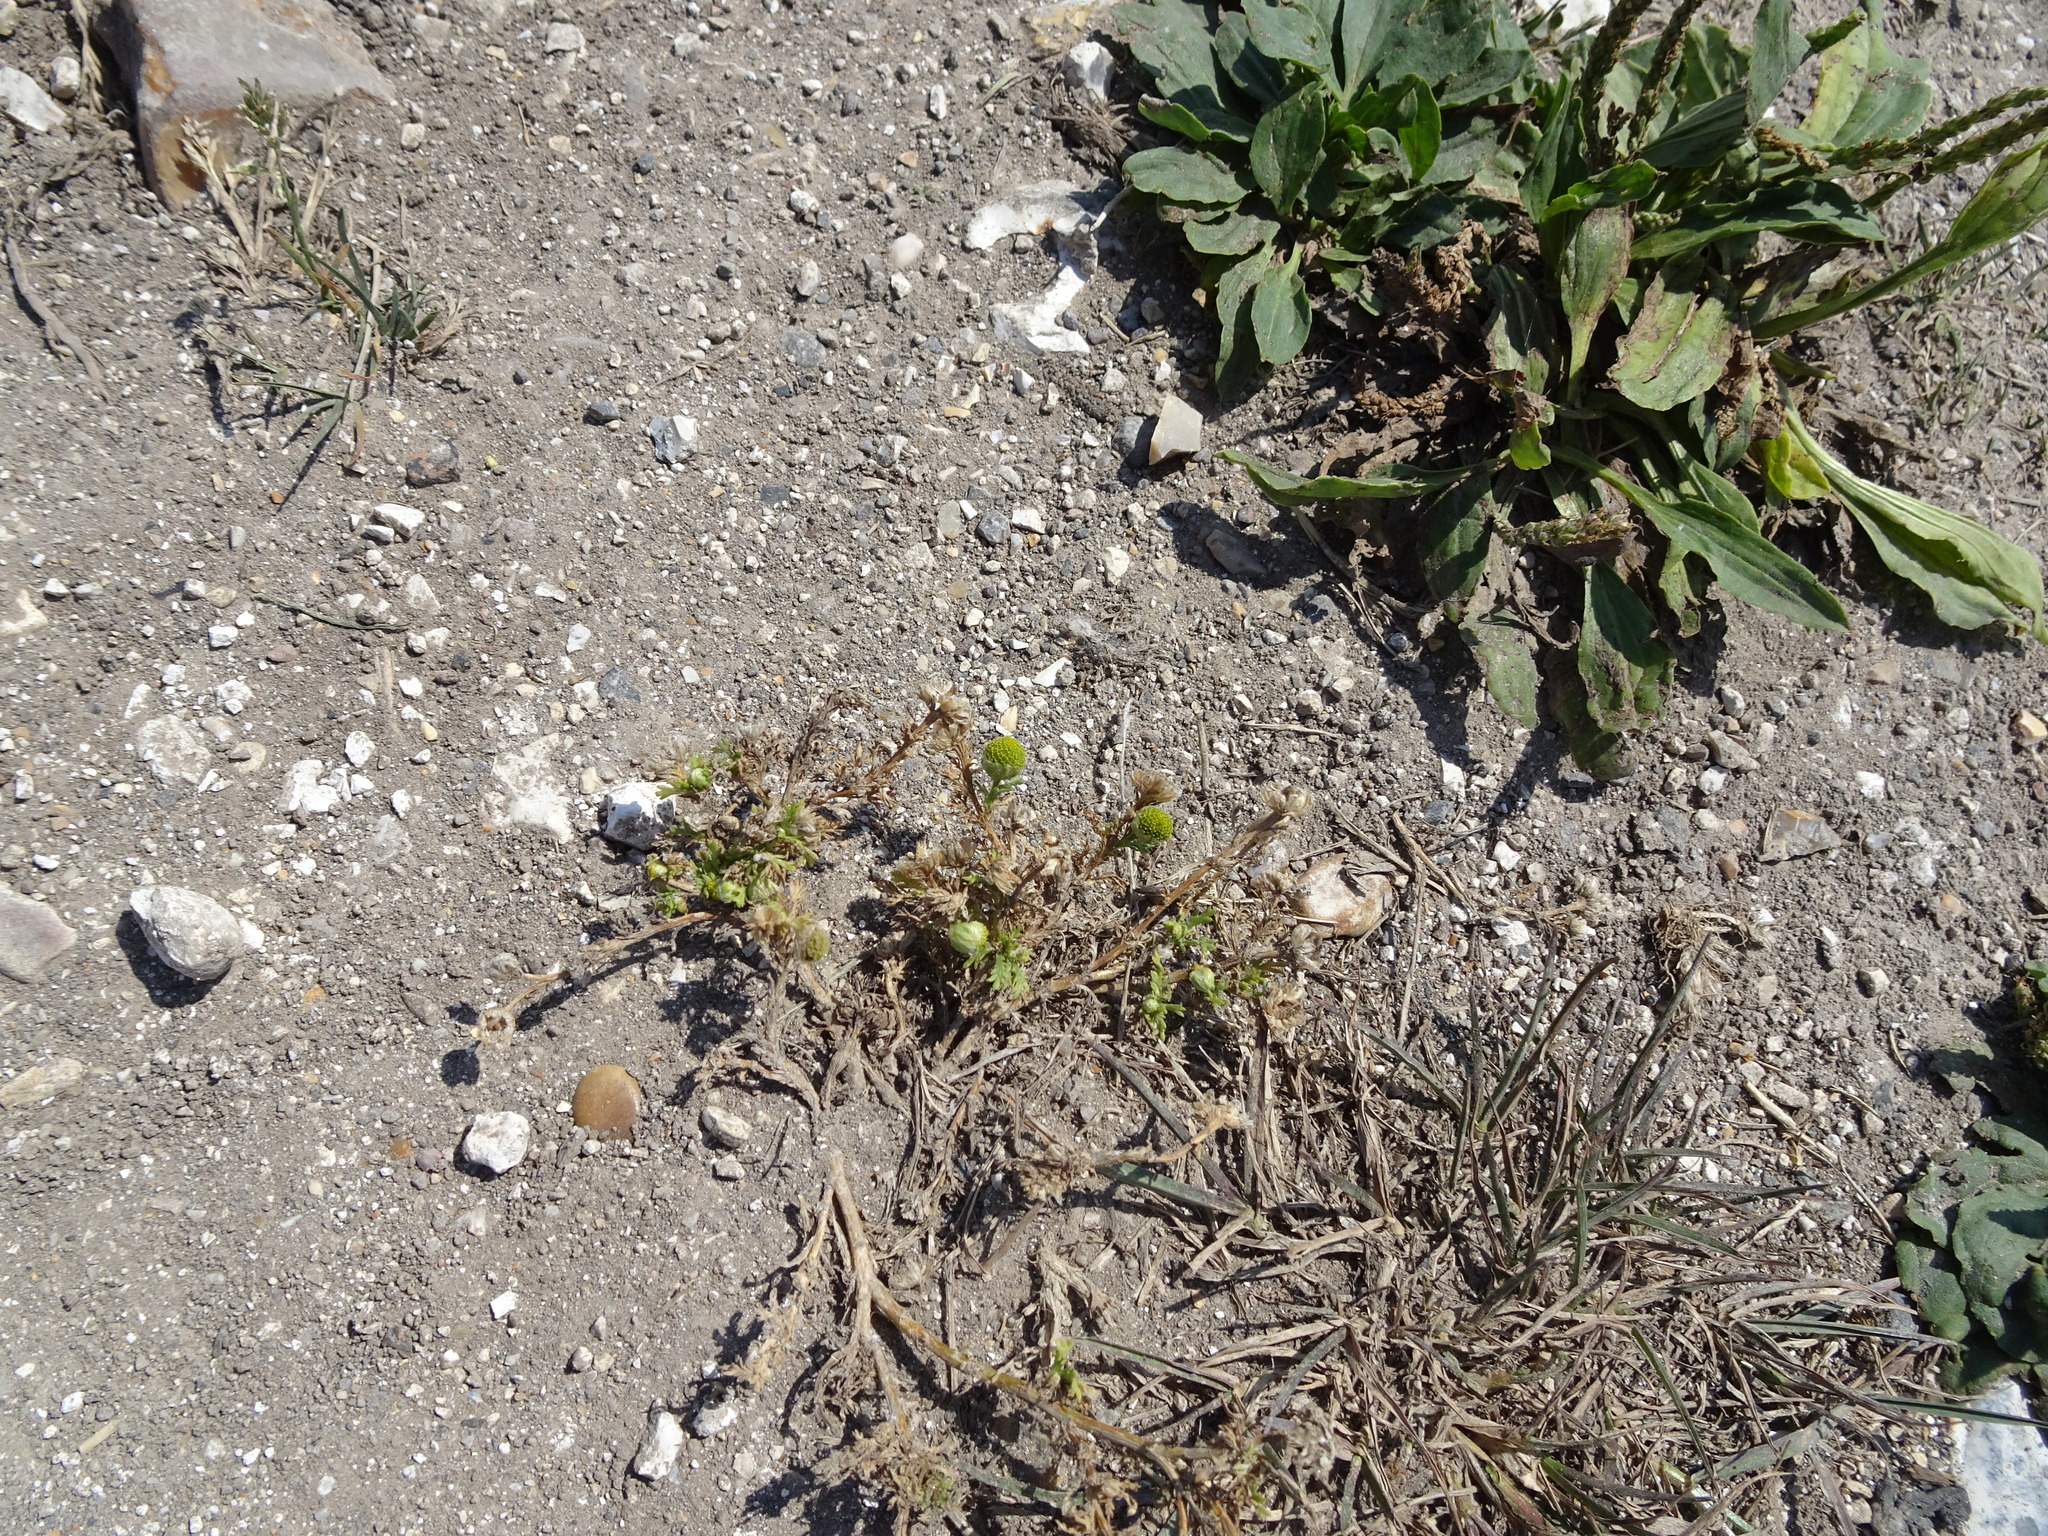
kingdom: Plantae
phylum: Tracheophyta
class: Magnoliopsida
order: Asterales
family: Asteraceae
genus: Matricaria
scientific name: Matricaria discoidea
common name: Disc mayweed
